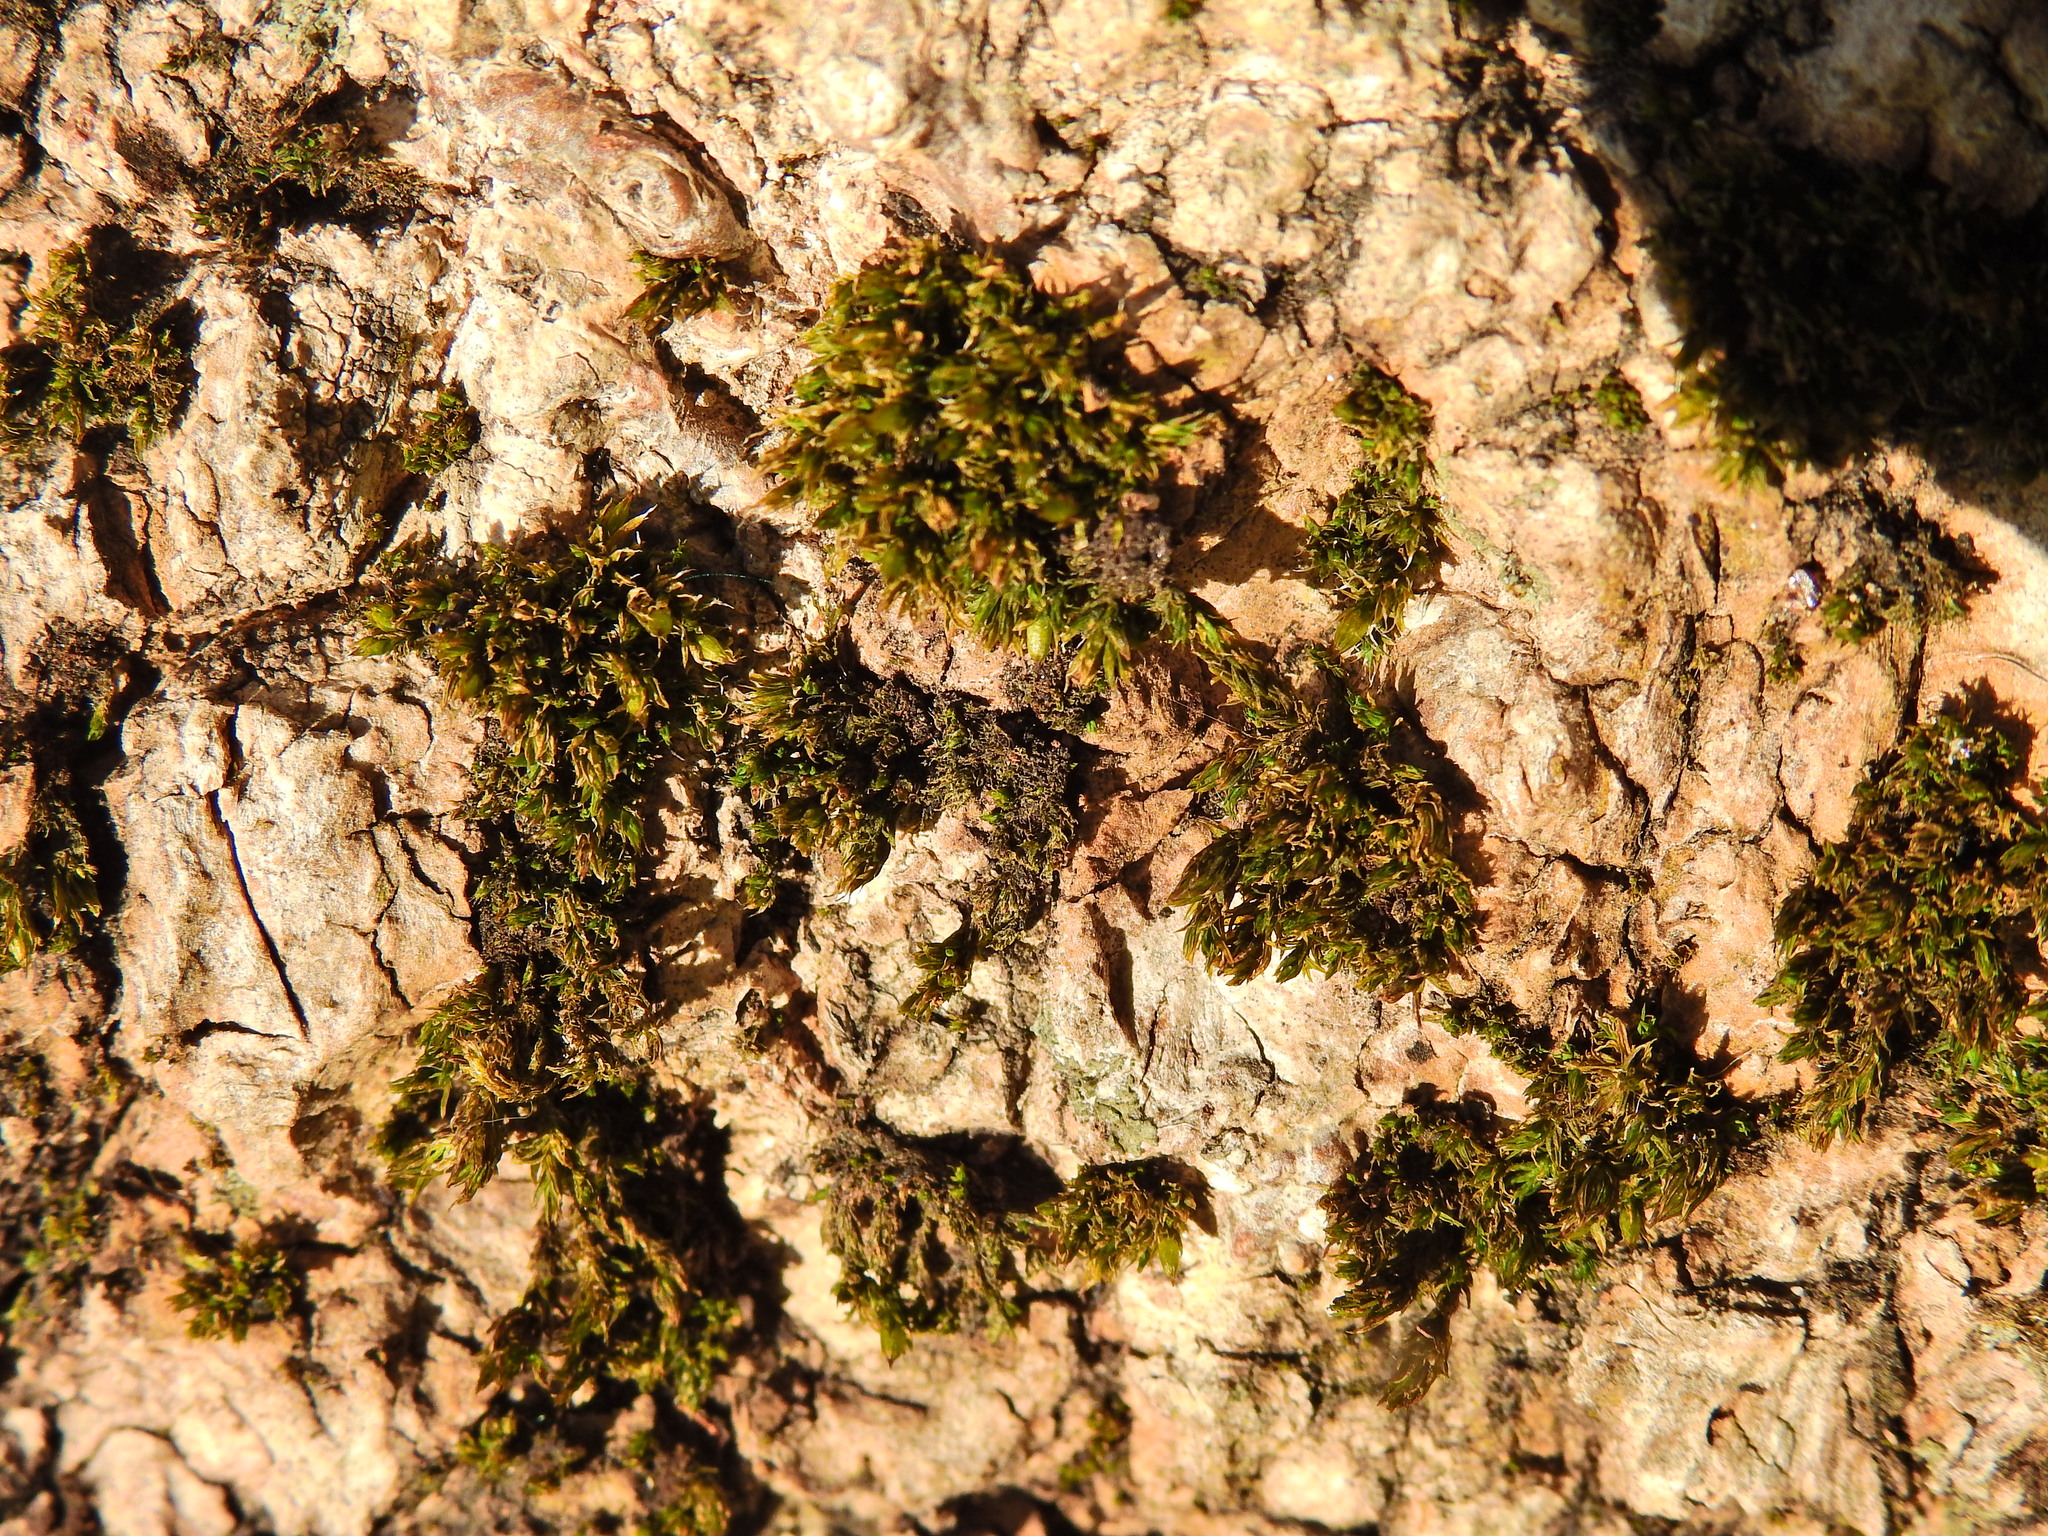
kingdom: Plantae
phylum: Bryophyta
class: Bryopsida
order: Orthotrichales
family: Orthotrichaceae
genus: Orthotrichum
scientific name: Orthotrichum diaphanum
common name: White-tipped bristle-moss
